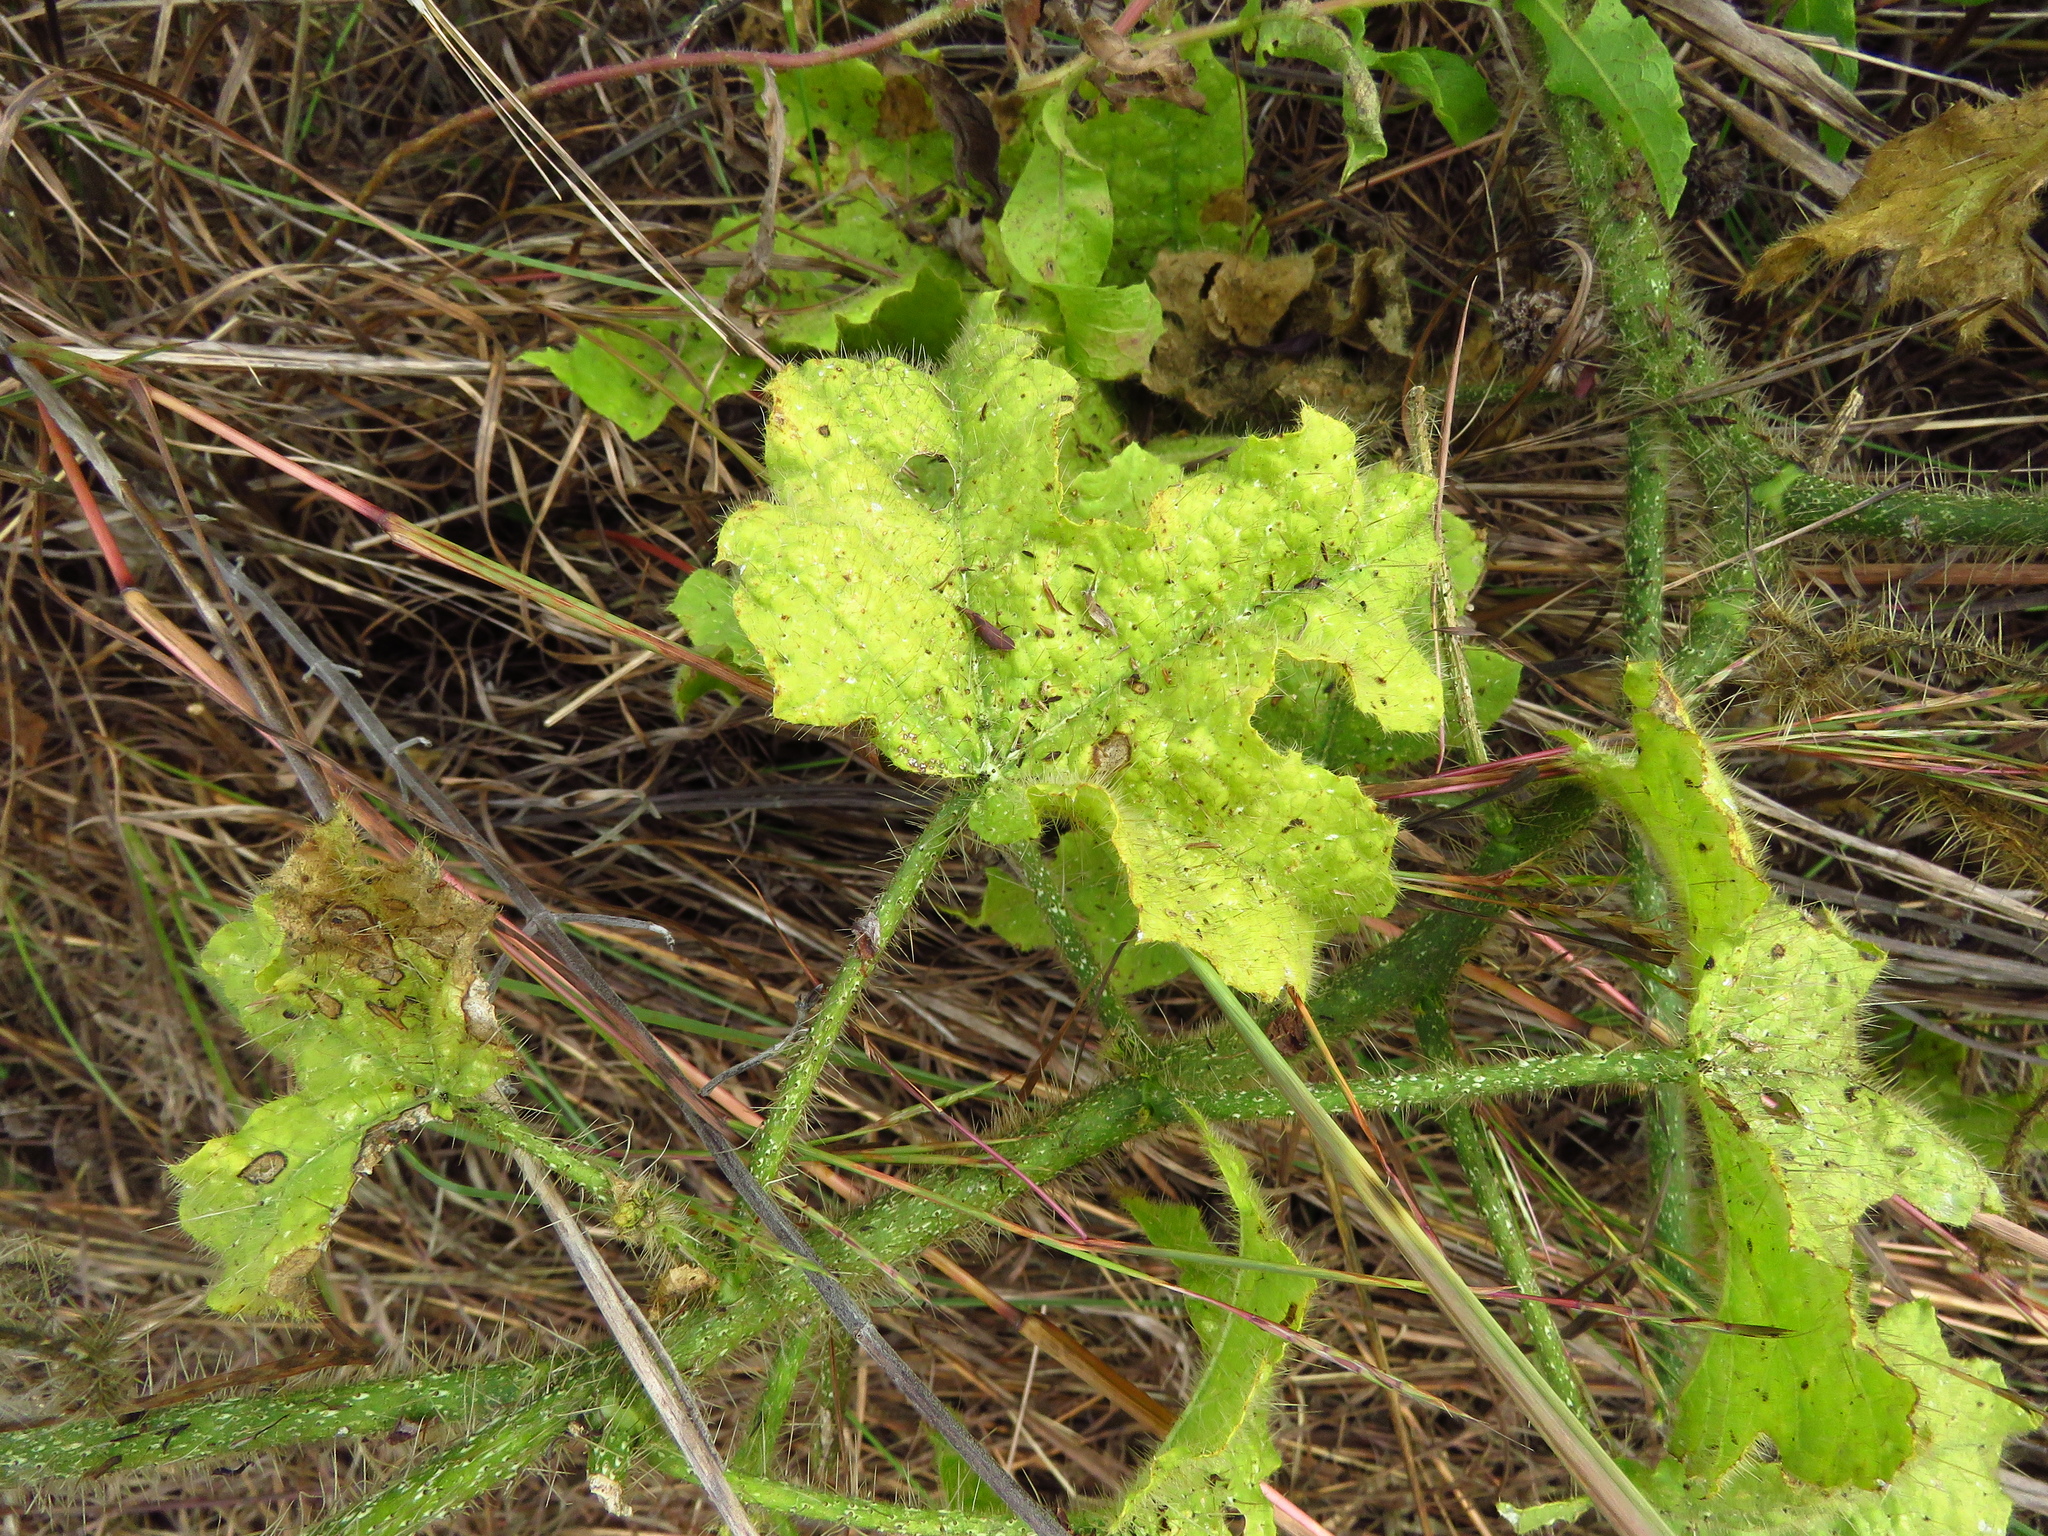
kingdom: Plantae
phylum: Tracheophyta
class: Magnoliopsida
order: Malpighiales
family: Euphorbiaceae
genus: Cnidoscolus
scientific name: Cnidoscolus texanus
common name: Texas bull-nettle
